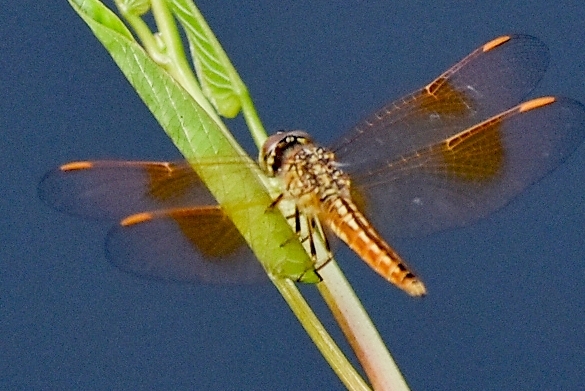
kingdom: Animalia
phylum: Arthropoda
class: Insecta
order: Odonata
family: Libellulidae
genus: Brachythemis
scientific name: Brachythemis contaminata
